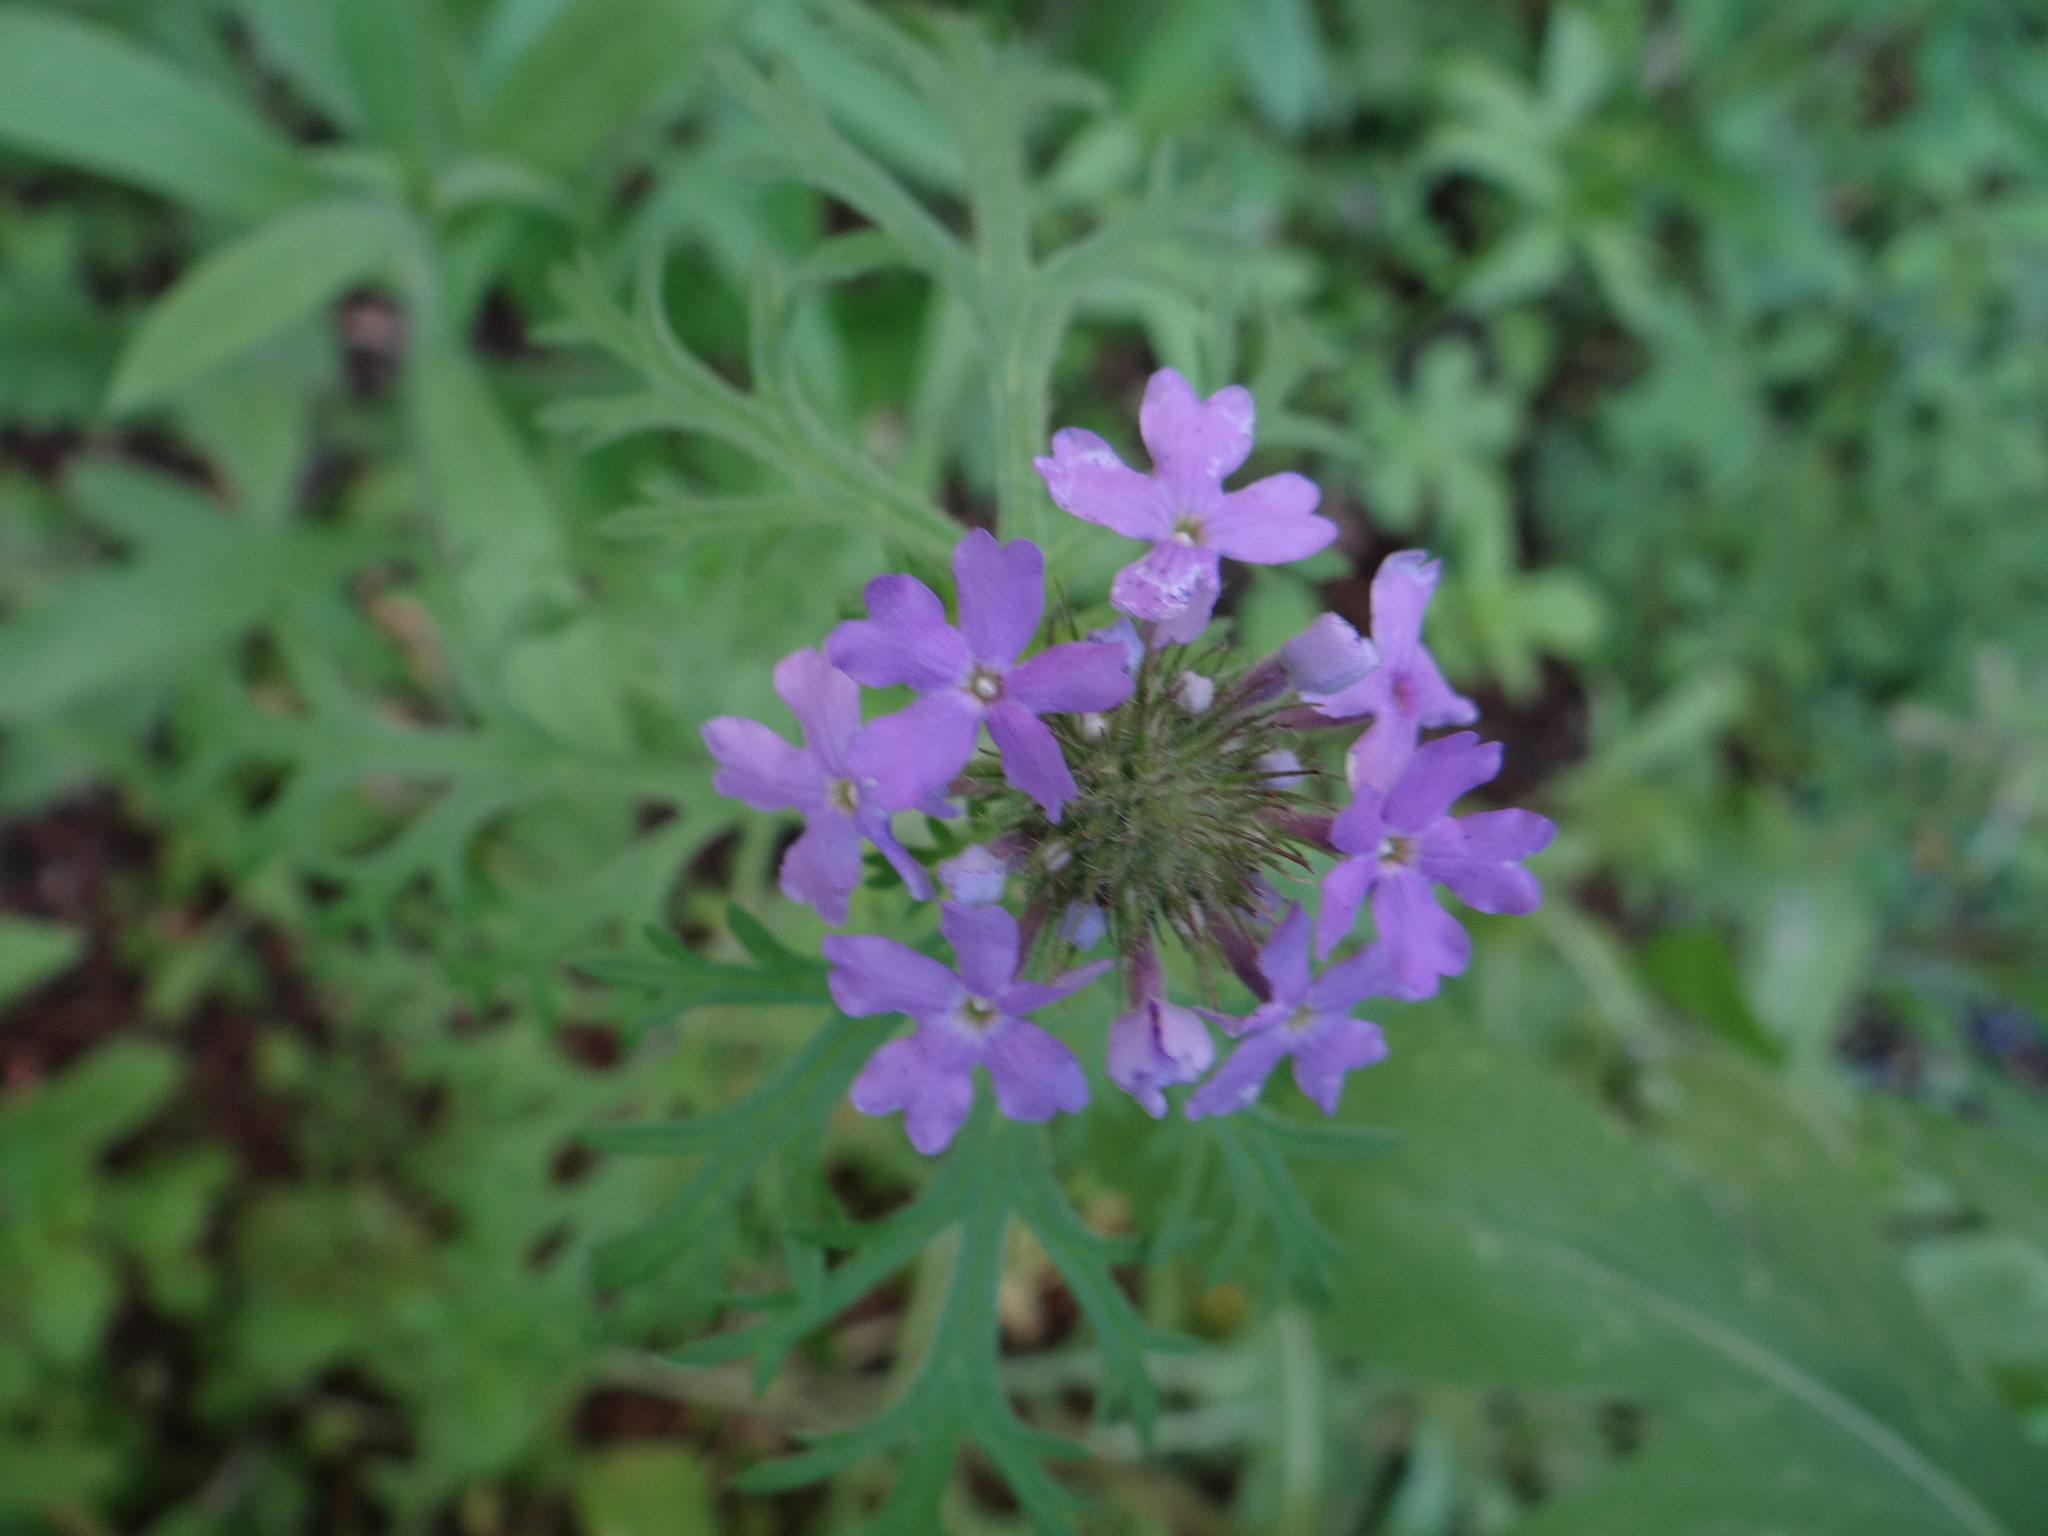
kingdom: Plantae
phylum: Tracheophyta
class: Magnoliopsida
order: Lamiales
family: Verbenaceae
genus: Verbena
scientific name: Verbena bipinnatifida
